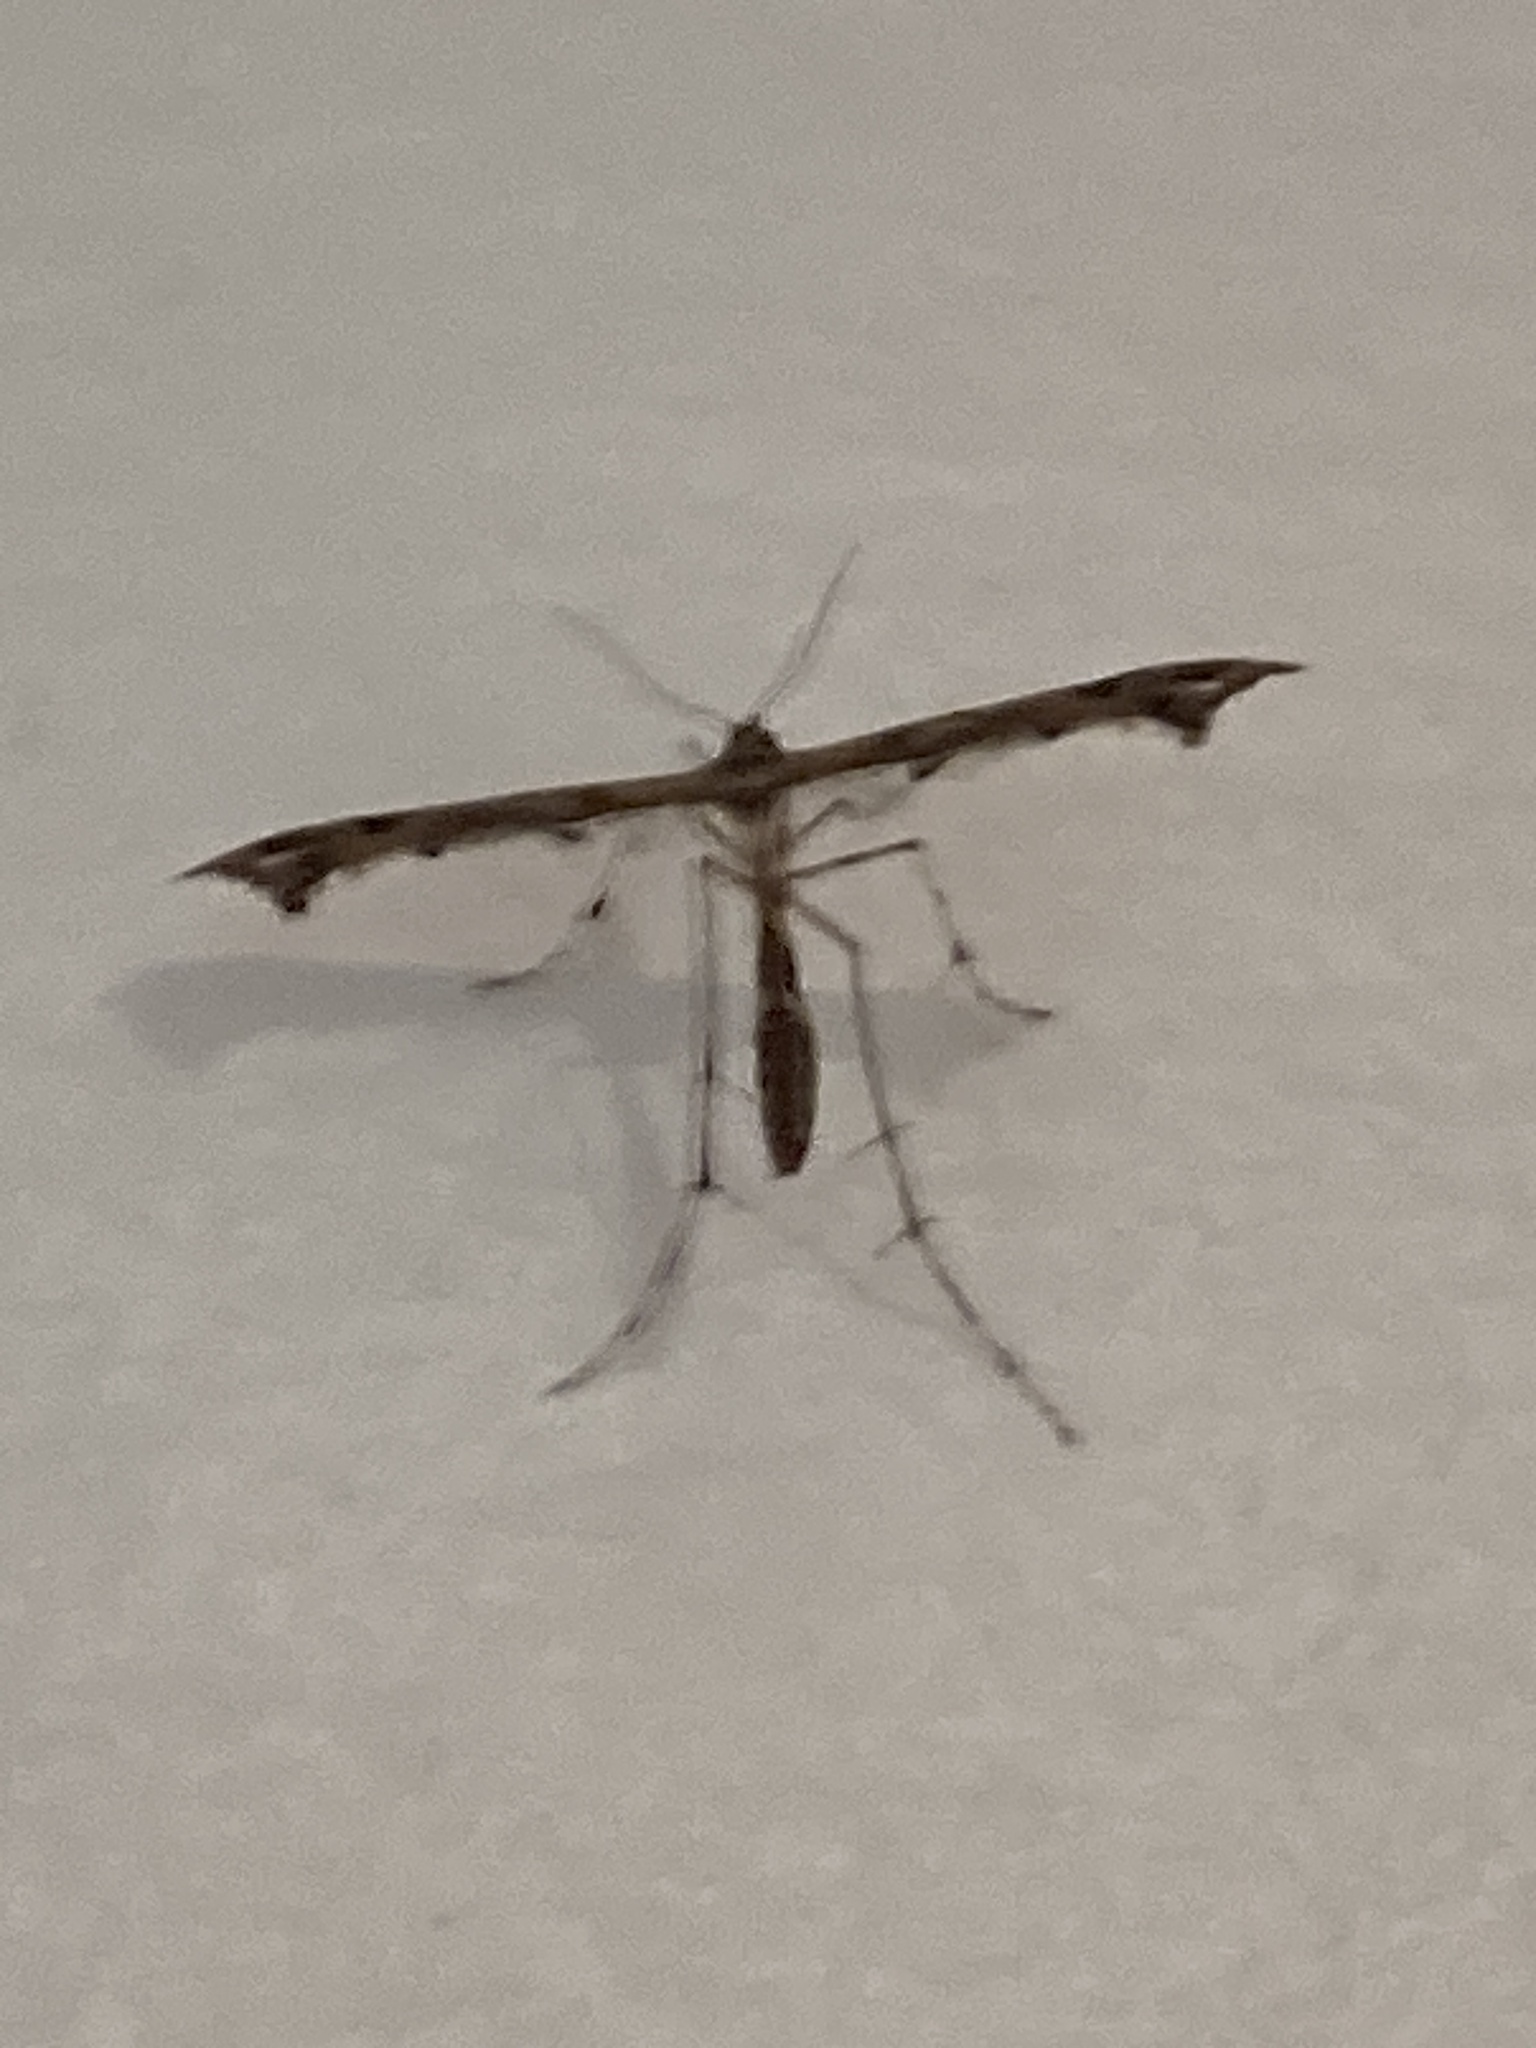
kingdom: Animalia
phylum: Arthropoda
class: Insecta
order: Lepidoptera
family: Pterophoridae
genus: Amblyptilia
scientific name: Amblyptilia acanthadactyla
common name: Beautiful plume
